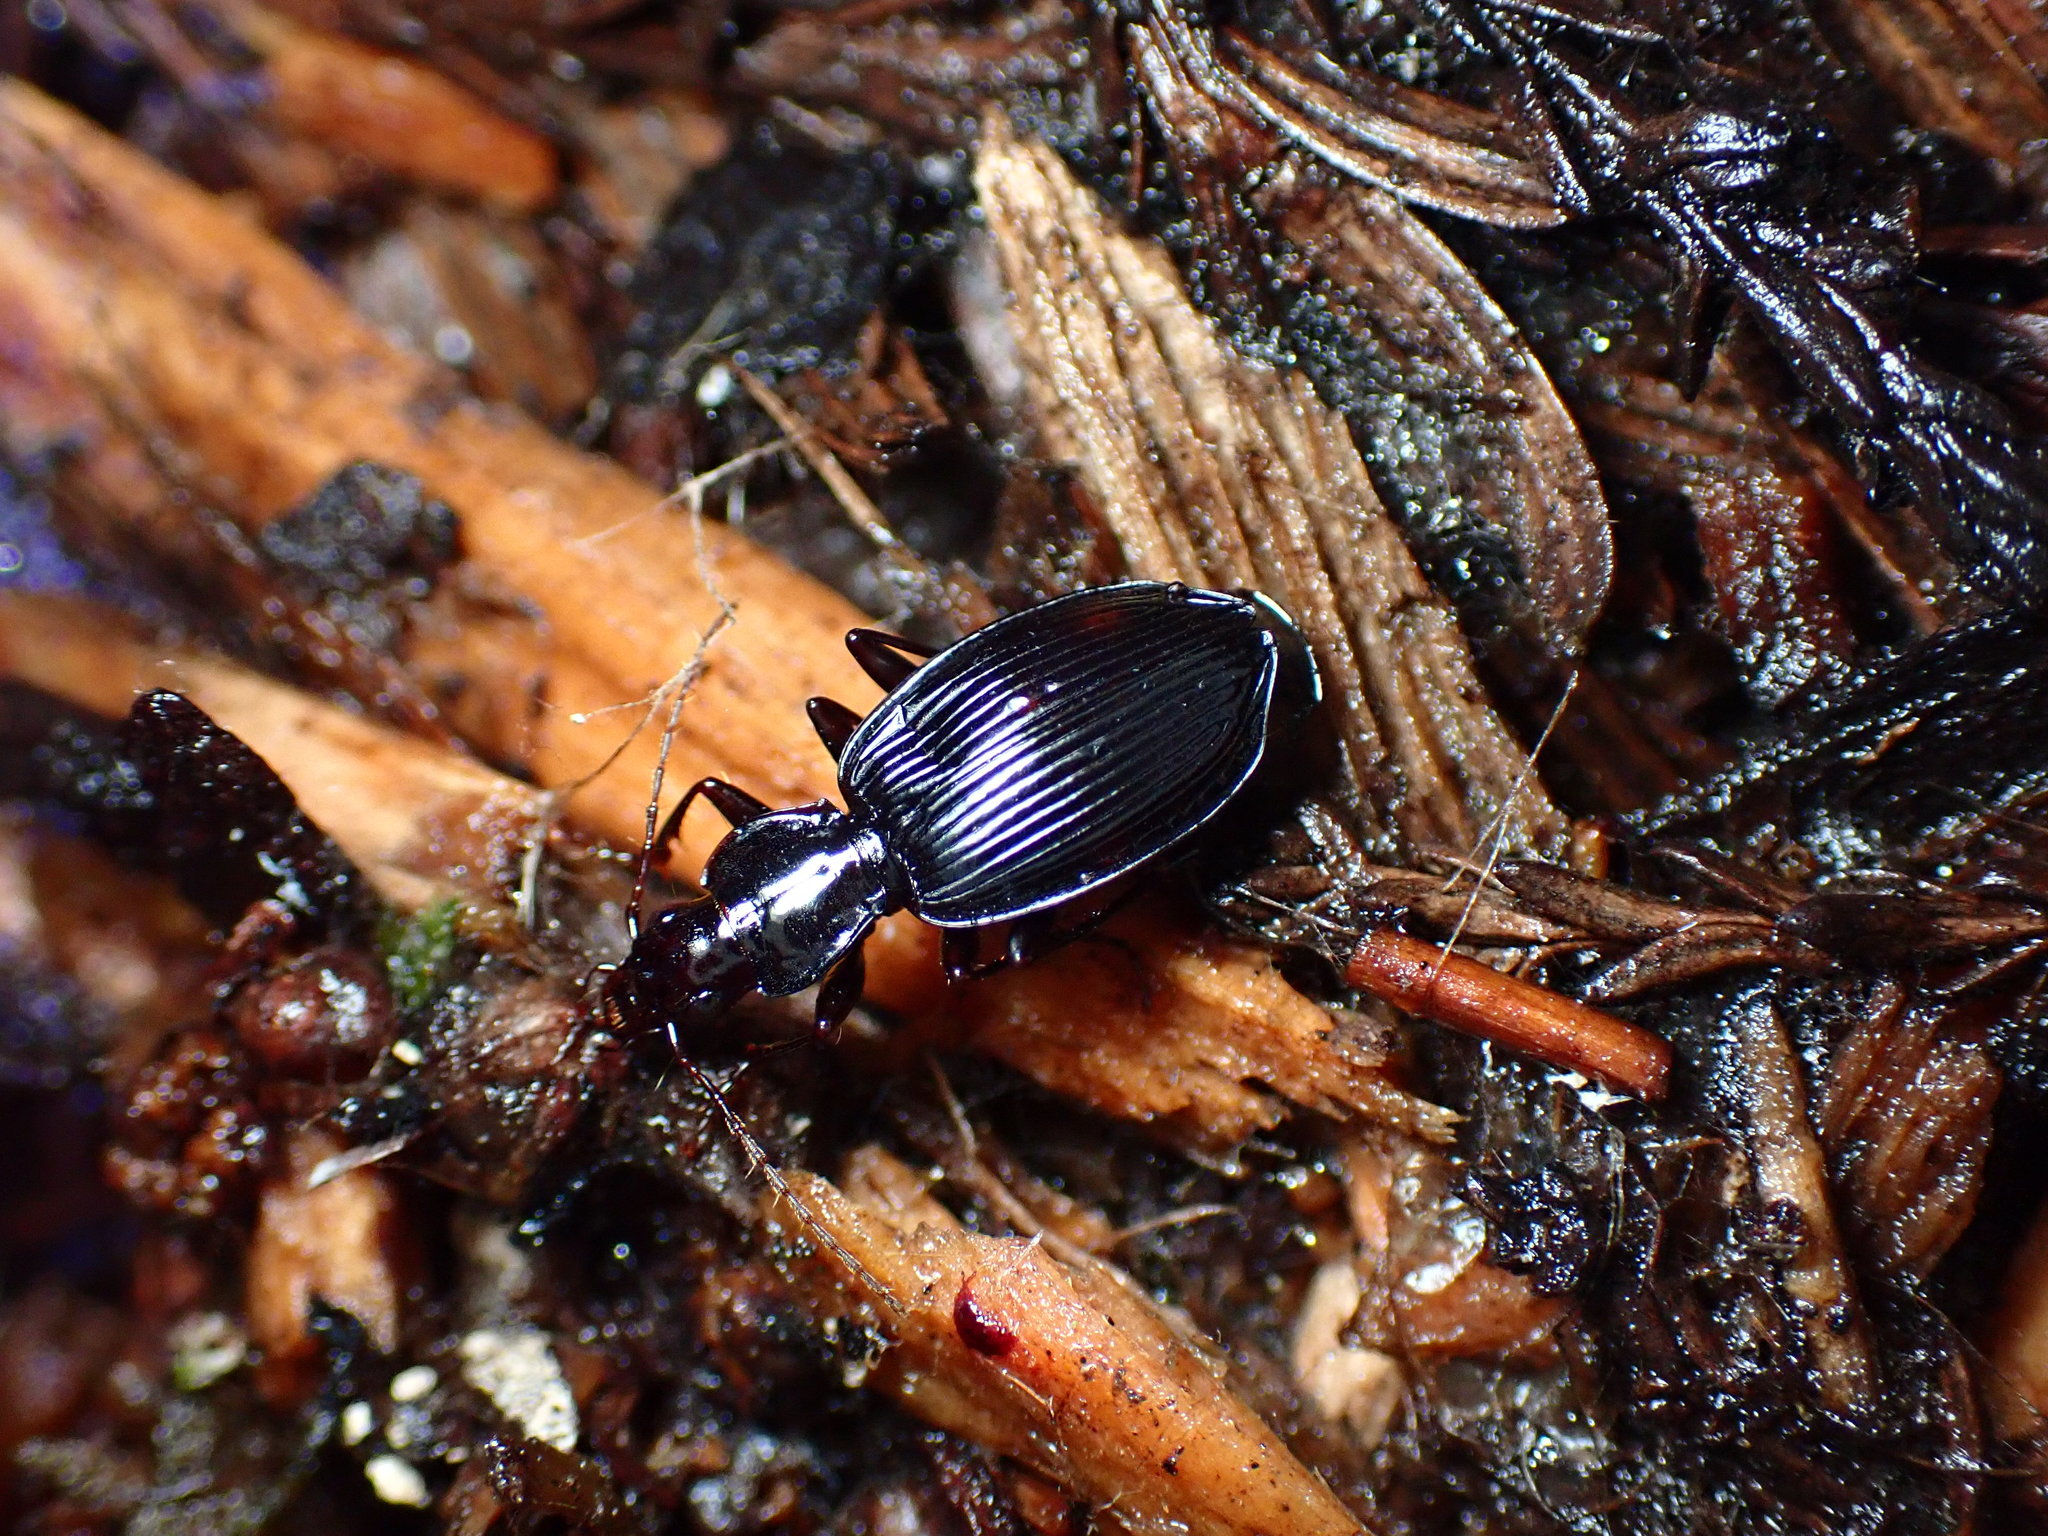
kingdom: Animalia
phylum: Arthropoda
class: Insecta
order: Coleoptera
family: Carabidae
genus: Platynus
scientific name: Platynus ovipennis
